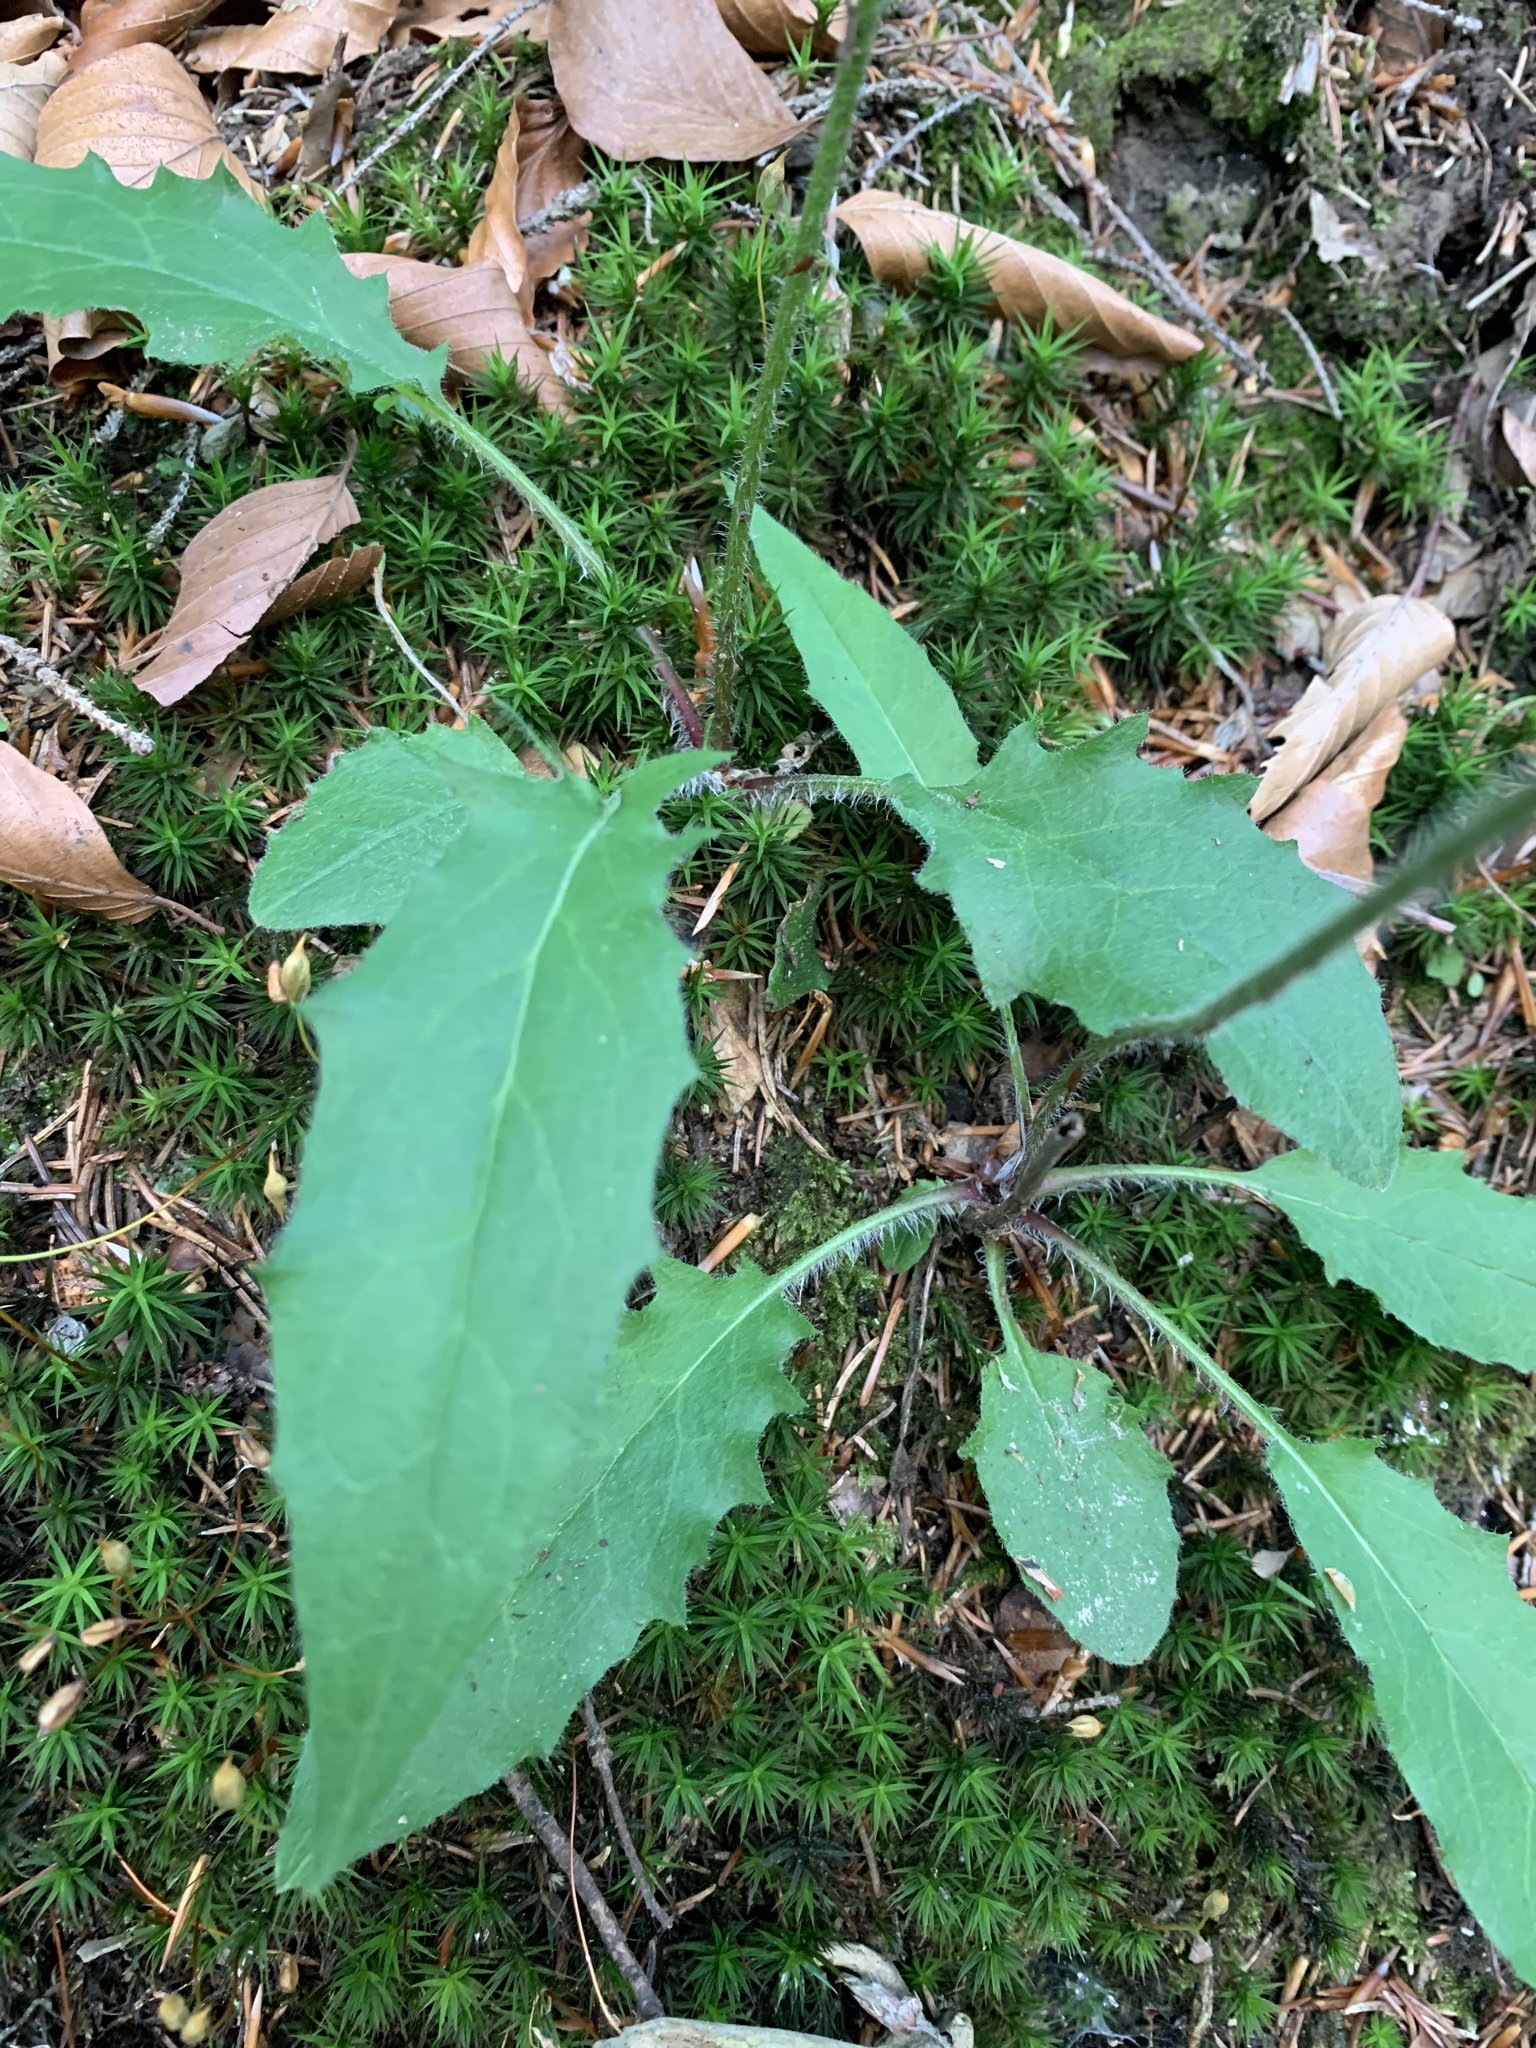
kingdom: Plantae
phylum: Tracheophyta
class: Magnoliopsida
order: Asterales
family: Asteraceae
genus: Hieracium
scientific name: Hieracium murorum
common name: Wall hawkweed
